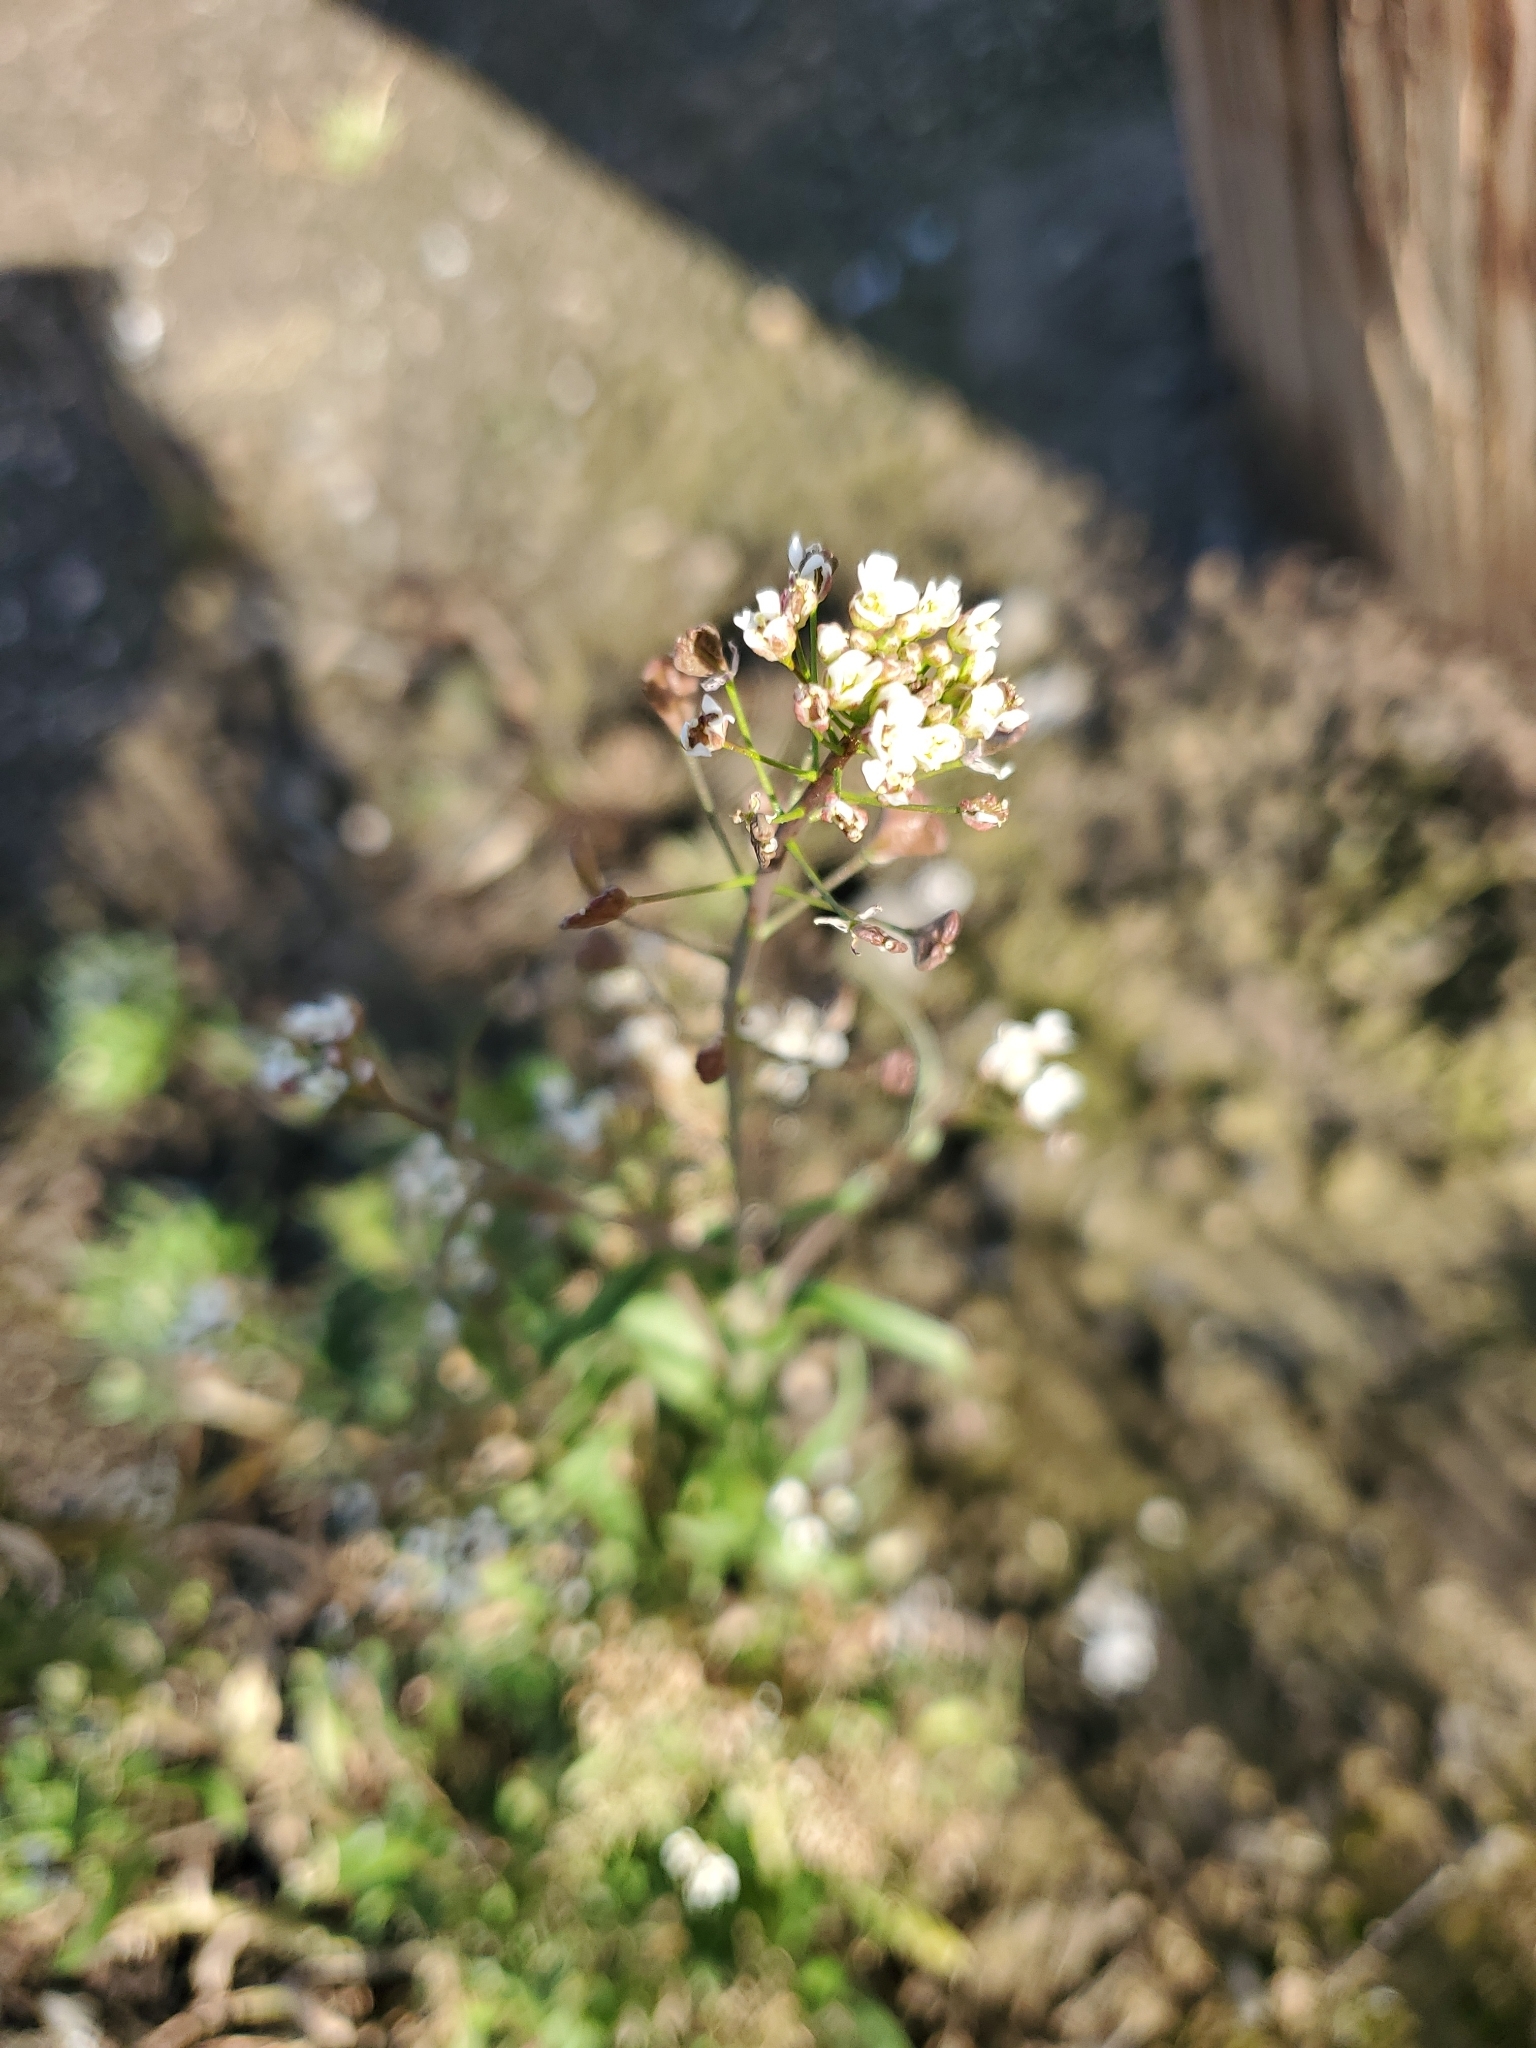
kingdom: Plantae
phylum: Tracheophyta
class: Magnoliopsida
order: Brassicales
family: Brassicaceae
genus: Capsella
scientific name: Capsella bursa-pastoris
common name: Shepherd's purse
